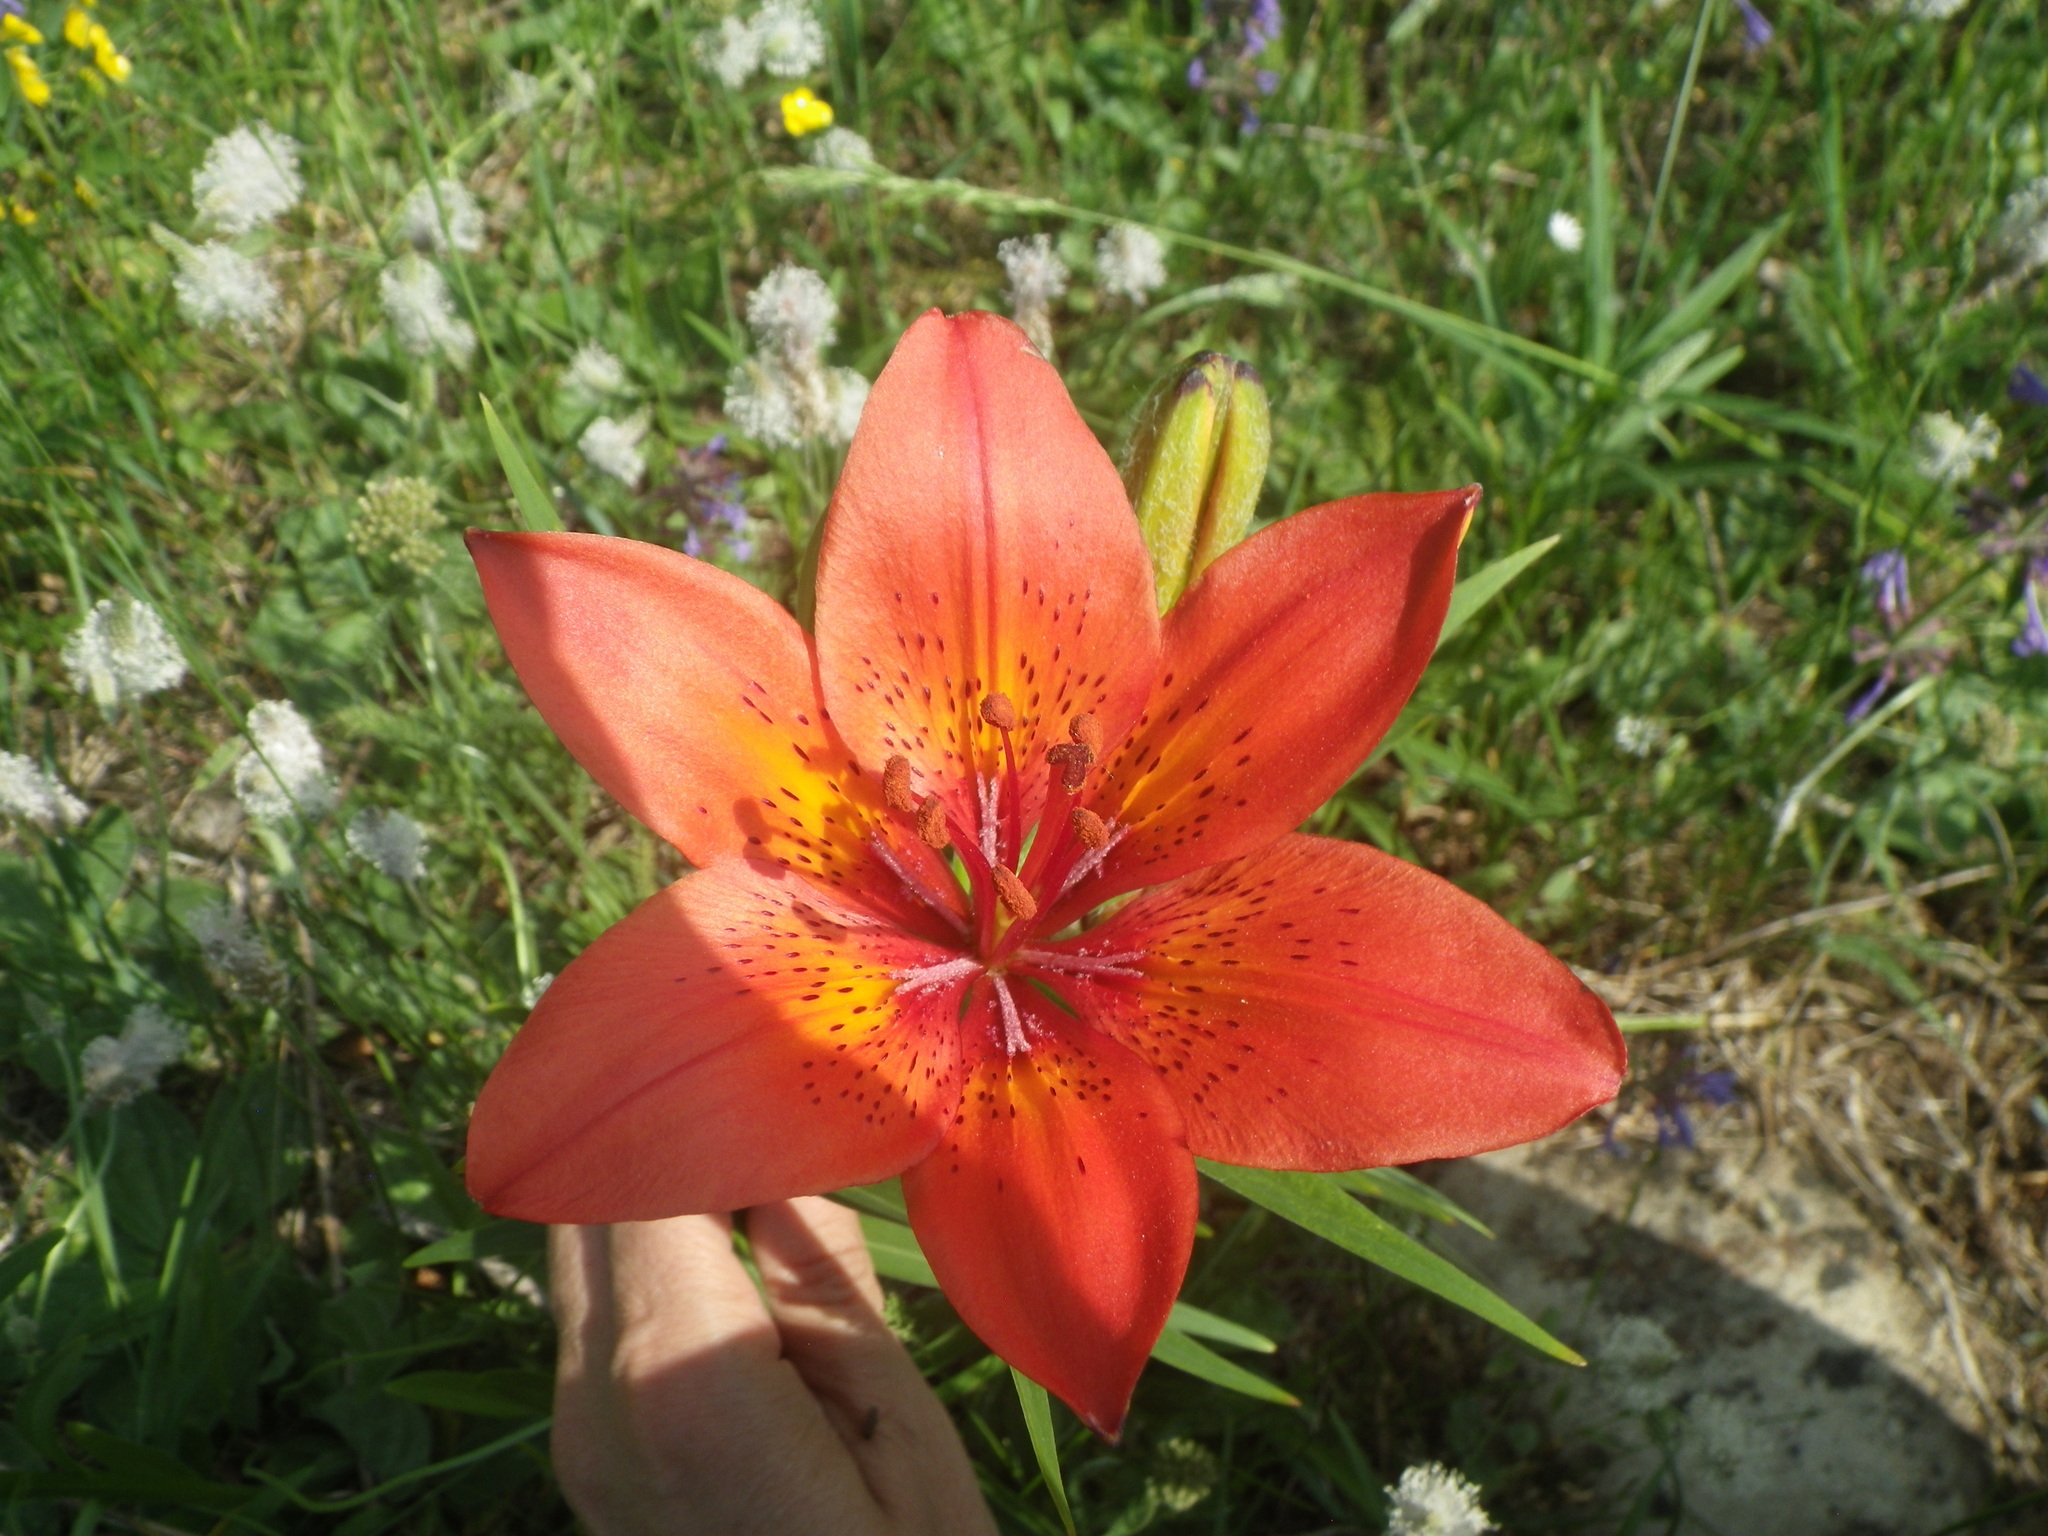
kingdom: Plantae
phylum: Tracheophyta
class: Liliopsida
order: Liliales
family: Liliaceae
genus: Lilium
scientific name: Lilium pensylvanicum
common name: Candlestick lily
